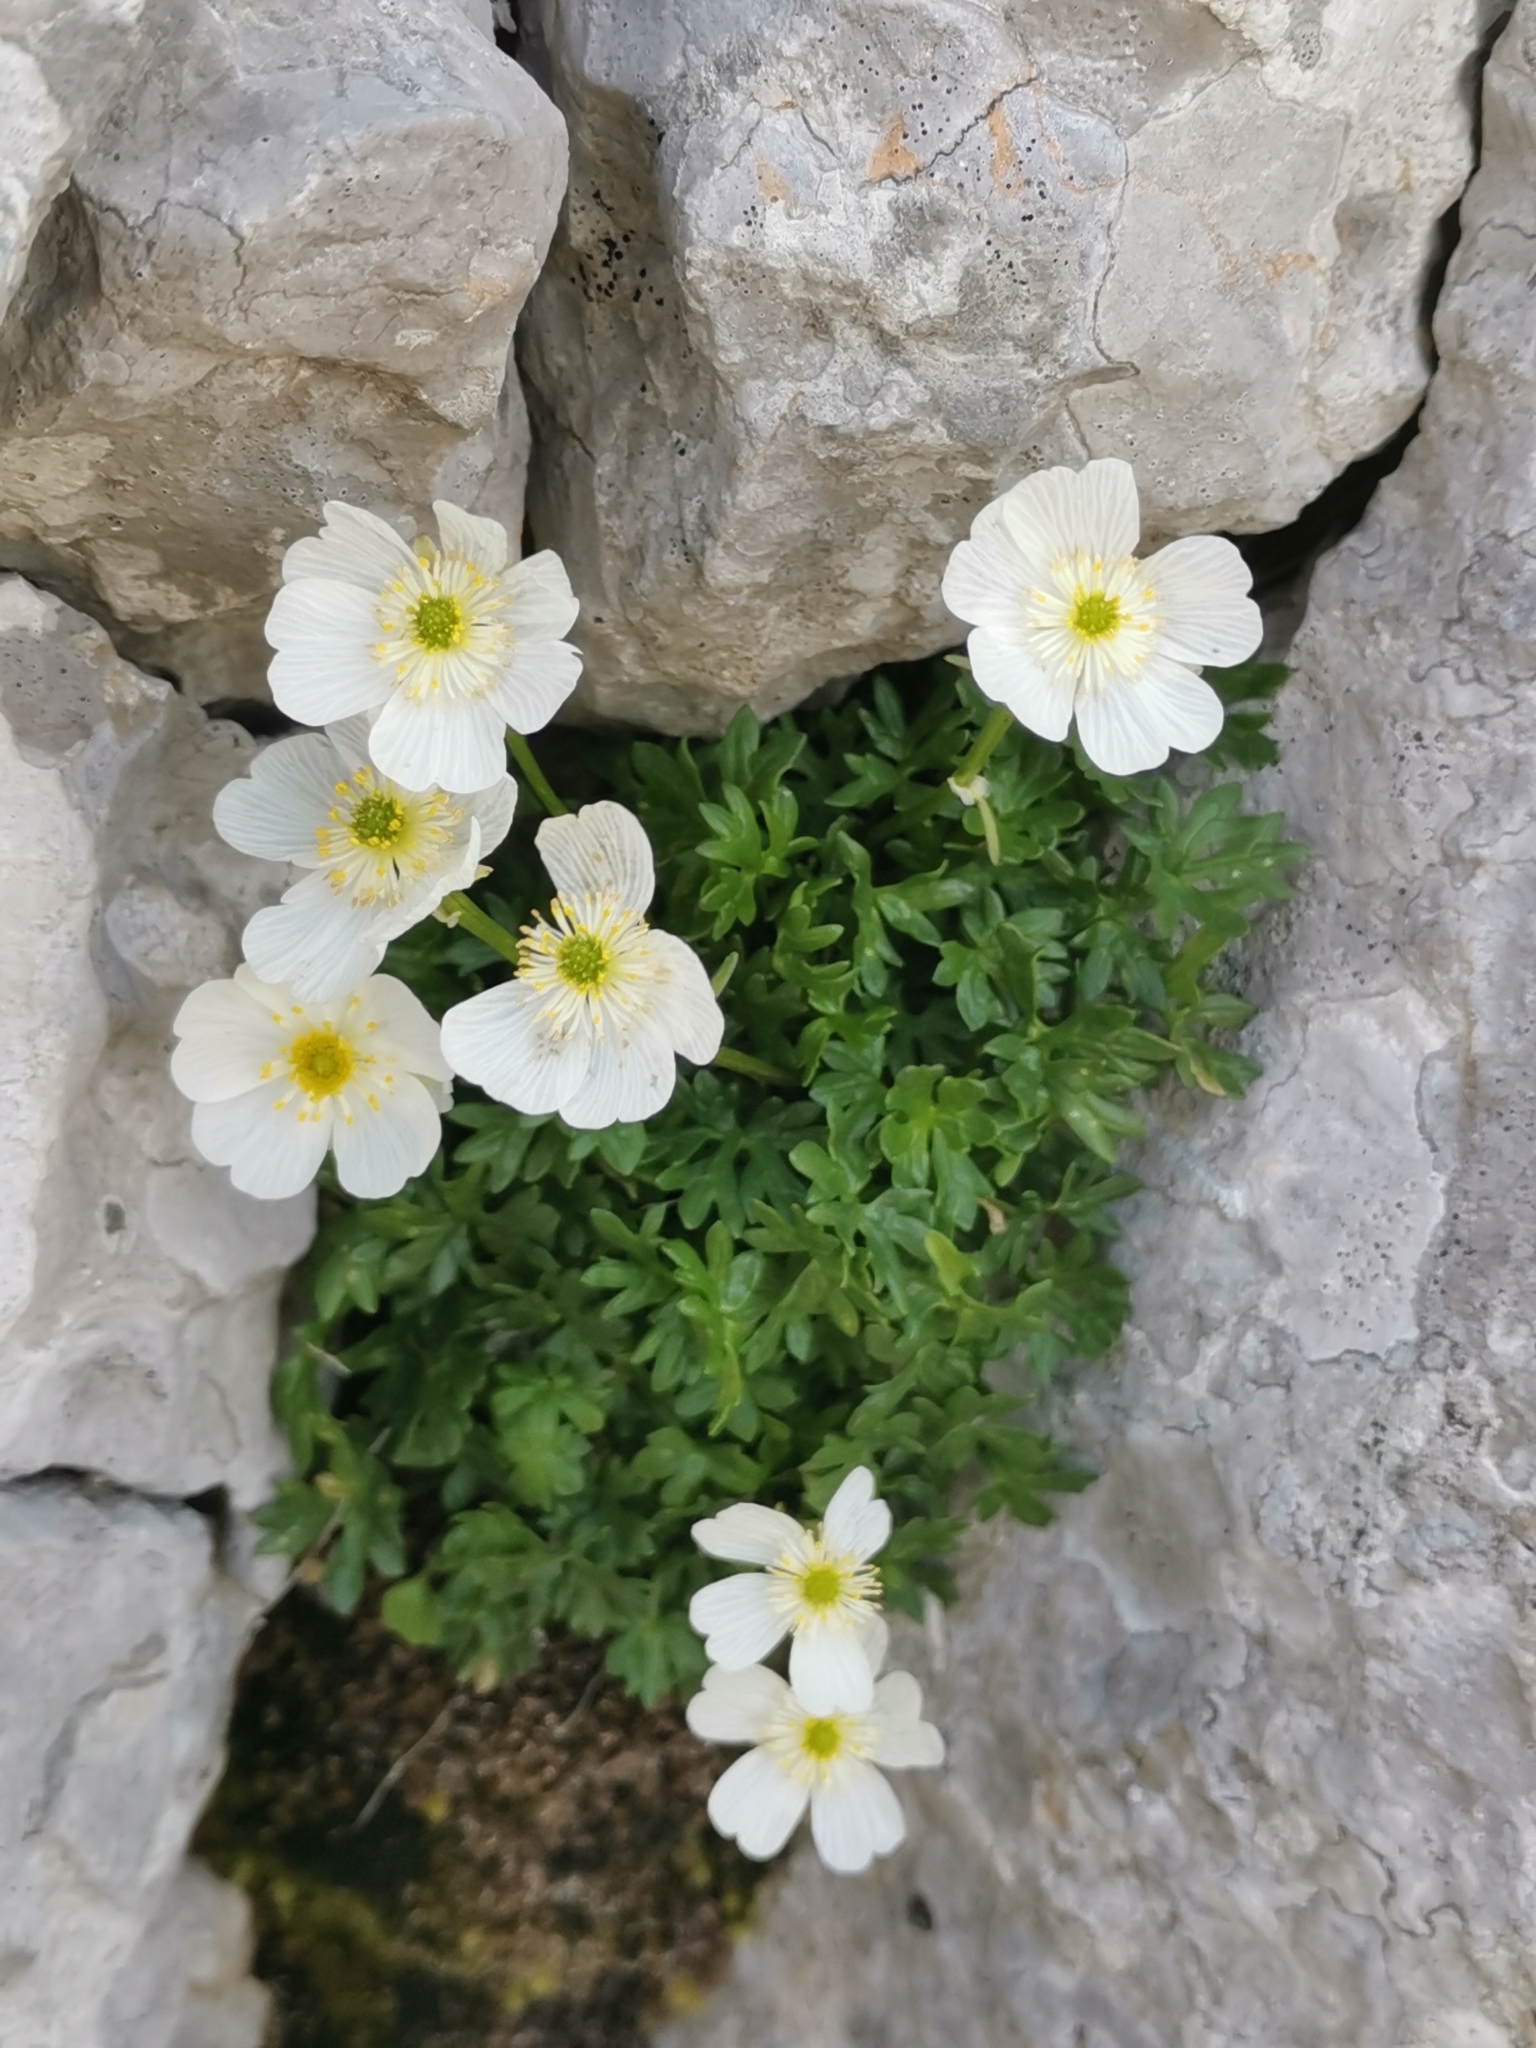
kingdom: Plantae
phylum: Tracheophyta
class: Magnoliopsida
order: Ranunculales
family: Ranunculaceae
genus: Ranunculus
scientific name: Ranunculus traunfellneri
